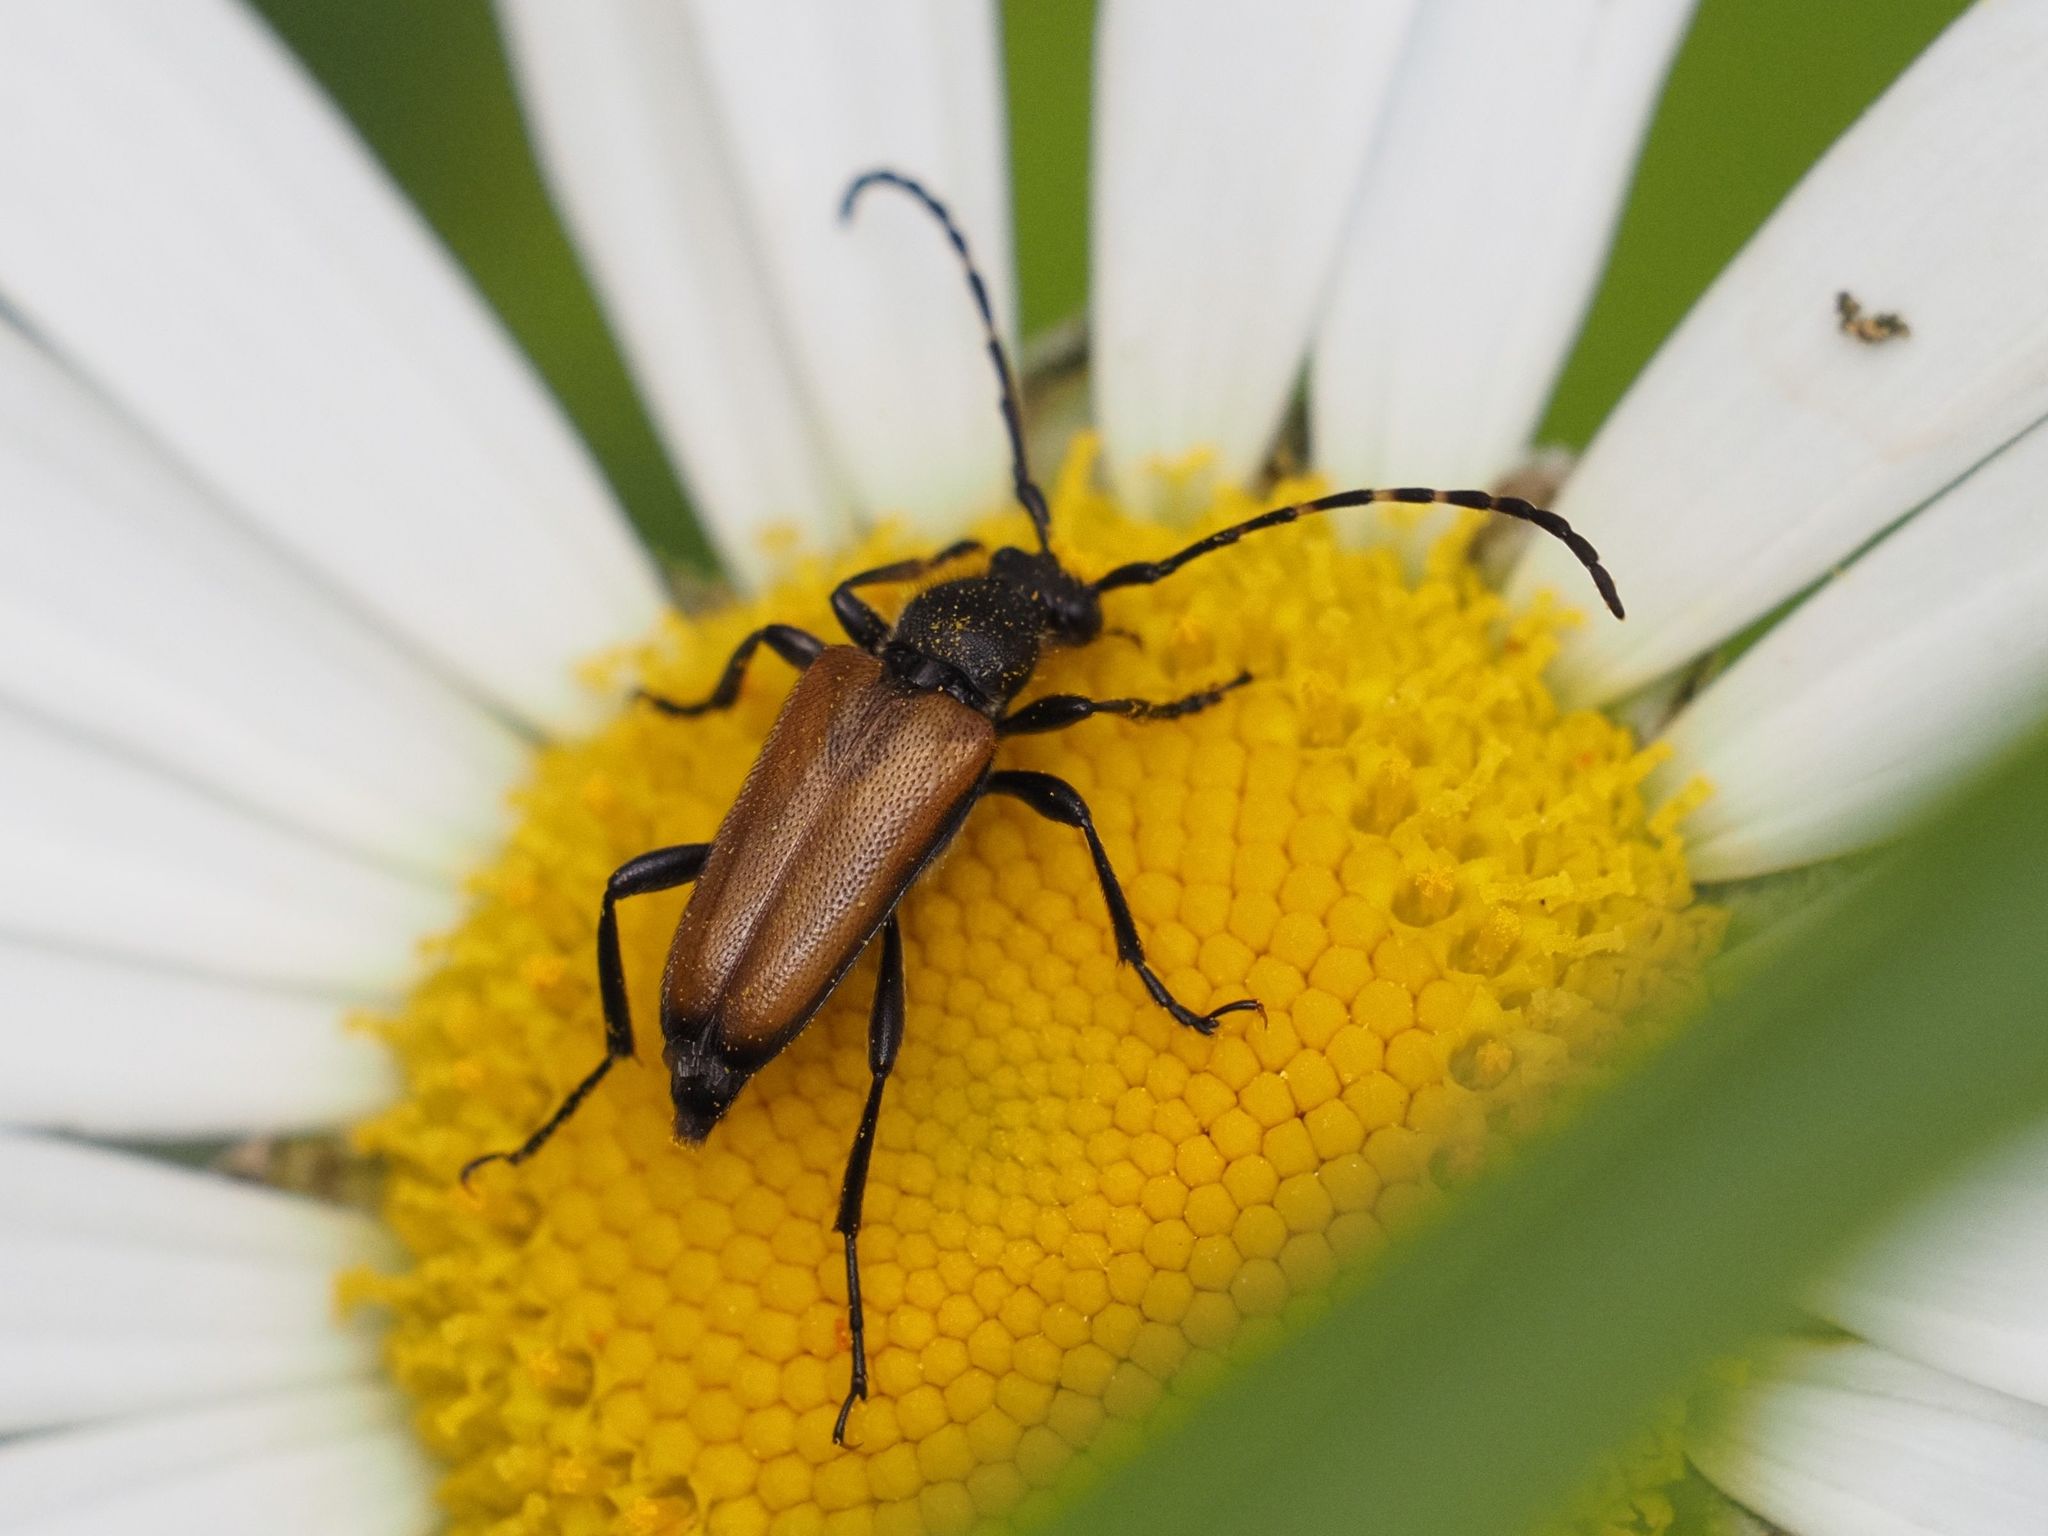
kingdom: Animalia
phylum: Arthropoda
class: Insecta
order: Coleoptera
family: Cerambycidae
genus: Paracorymbia
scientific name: Paracorymbia maculicornis
